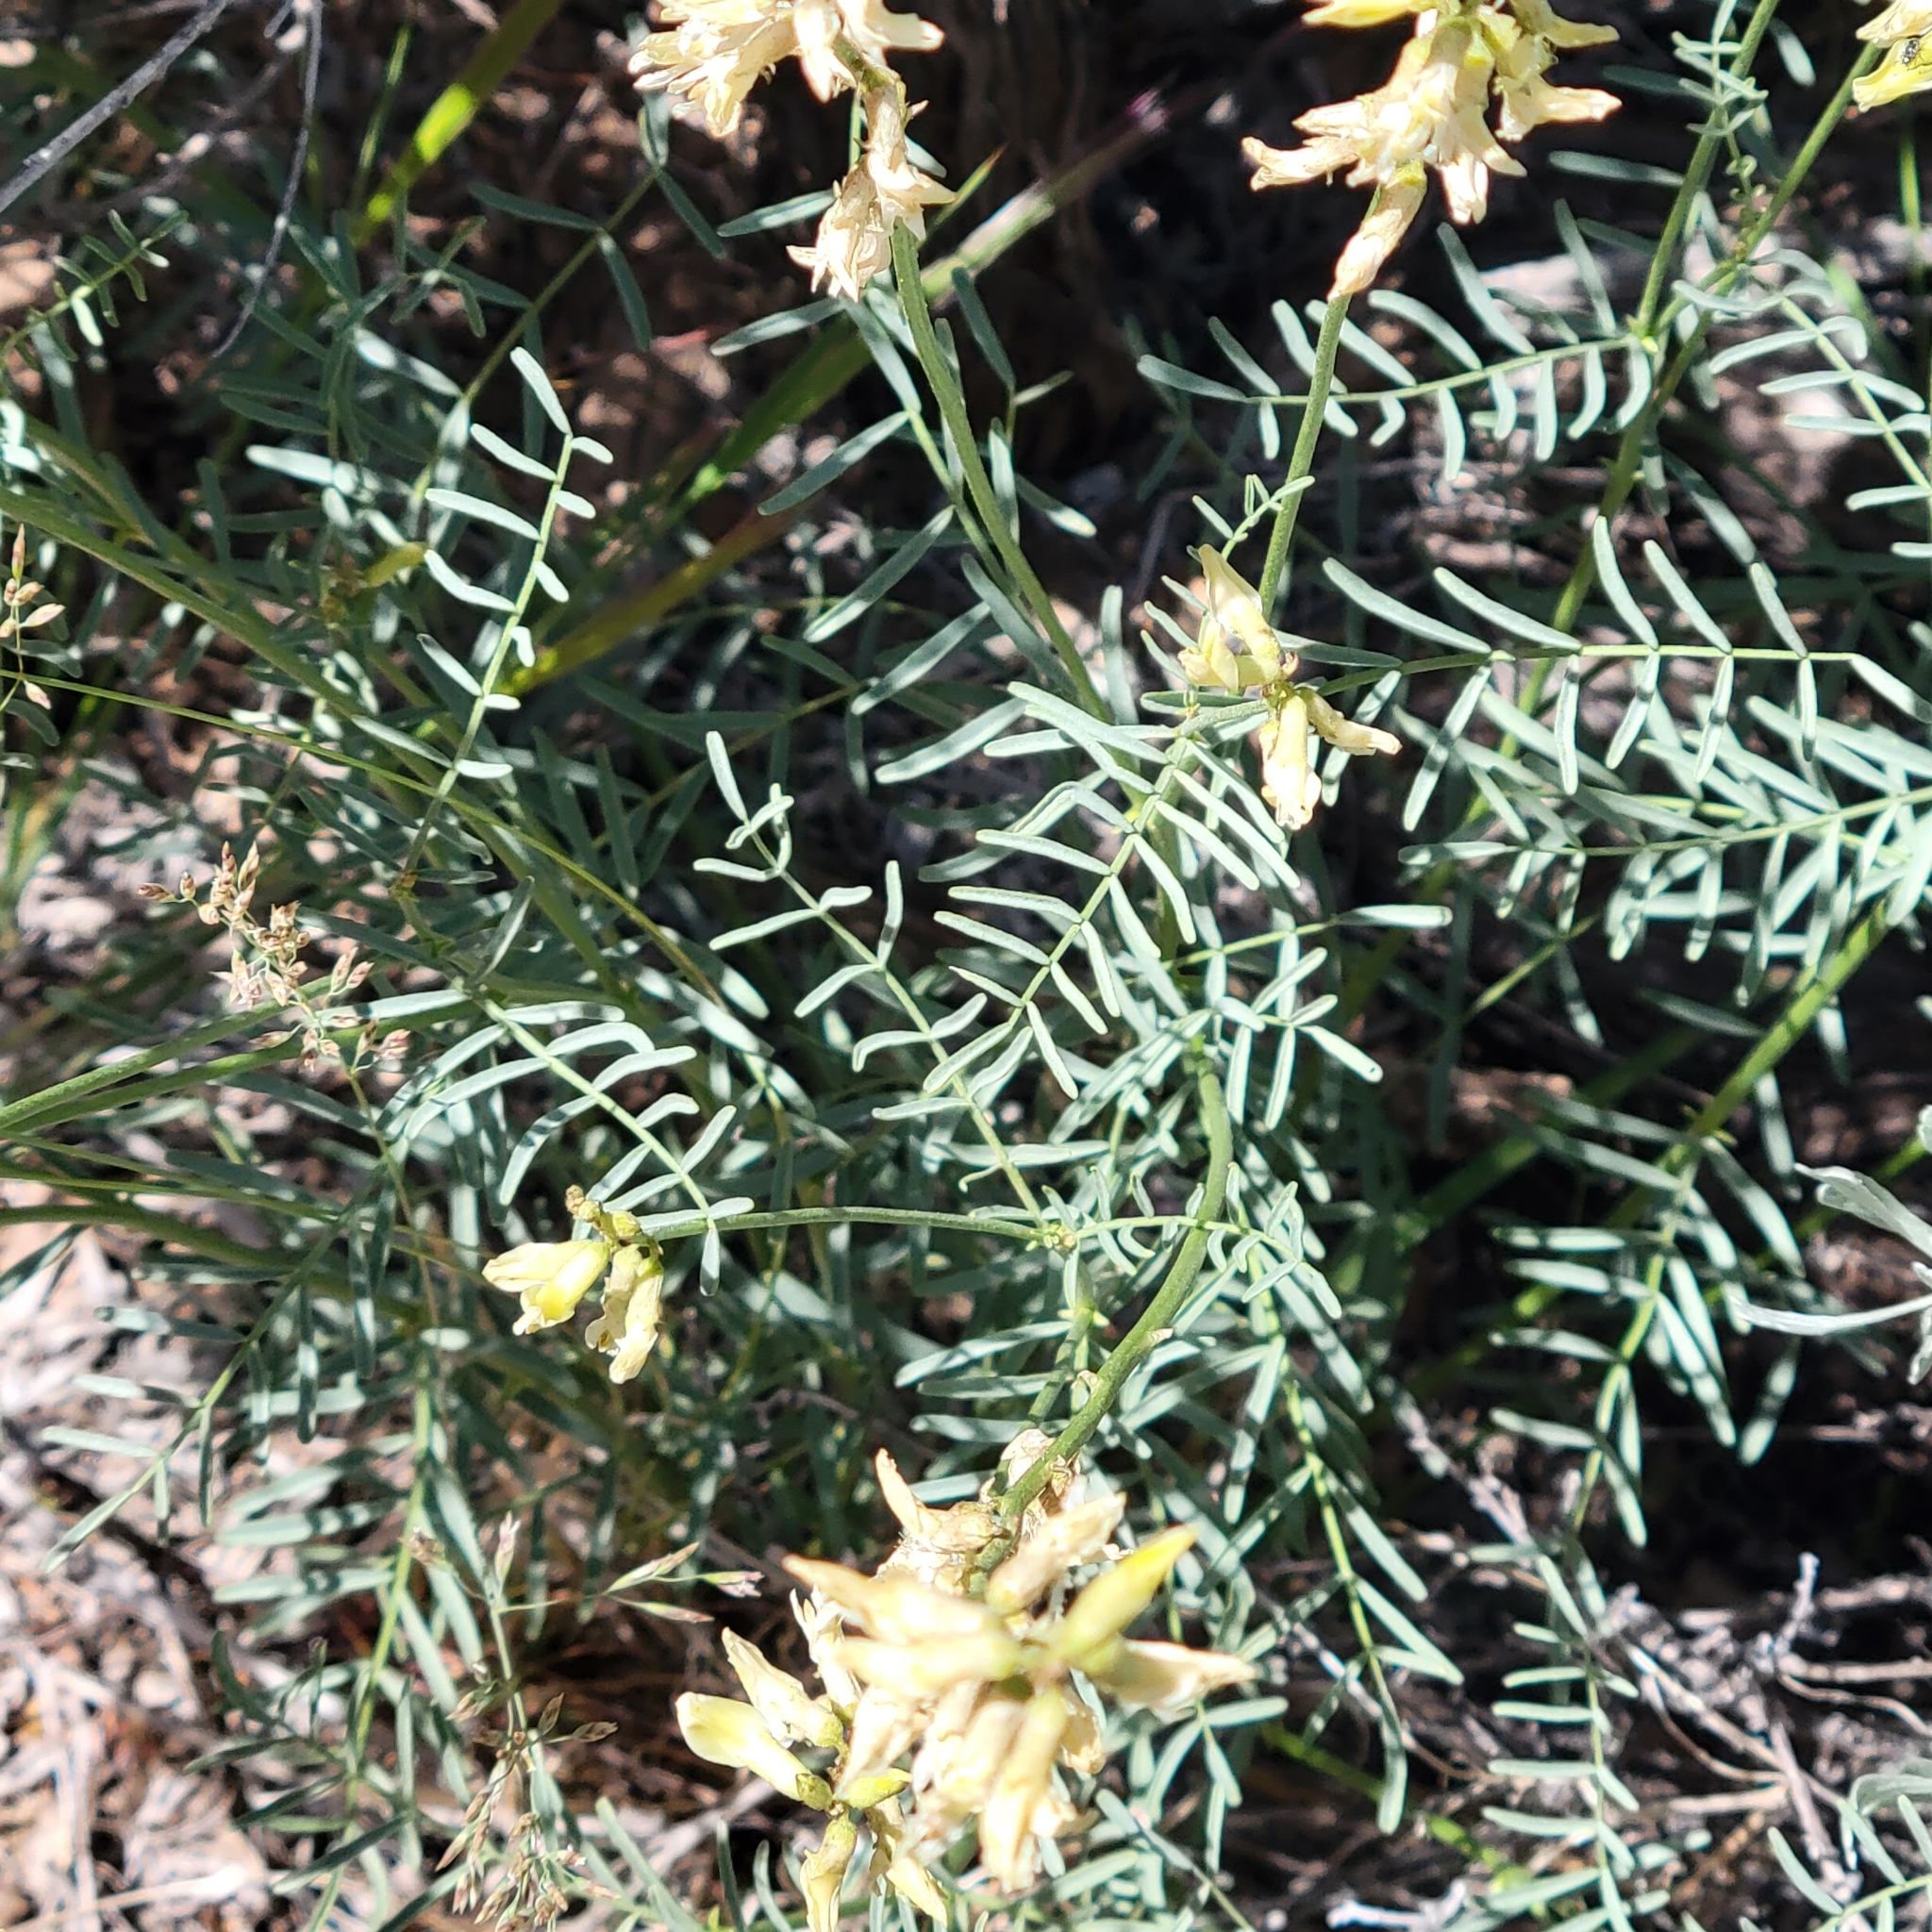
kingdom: Plantae
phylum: Tracheophyta
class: Magnoliopsida
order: Fabales
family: Fabaceae
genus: Astragalus
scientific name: Astragalus filipes
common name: Basalt milk-vetch
